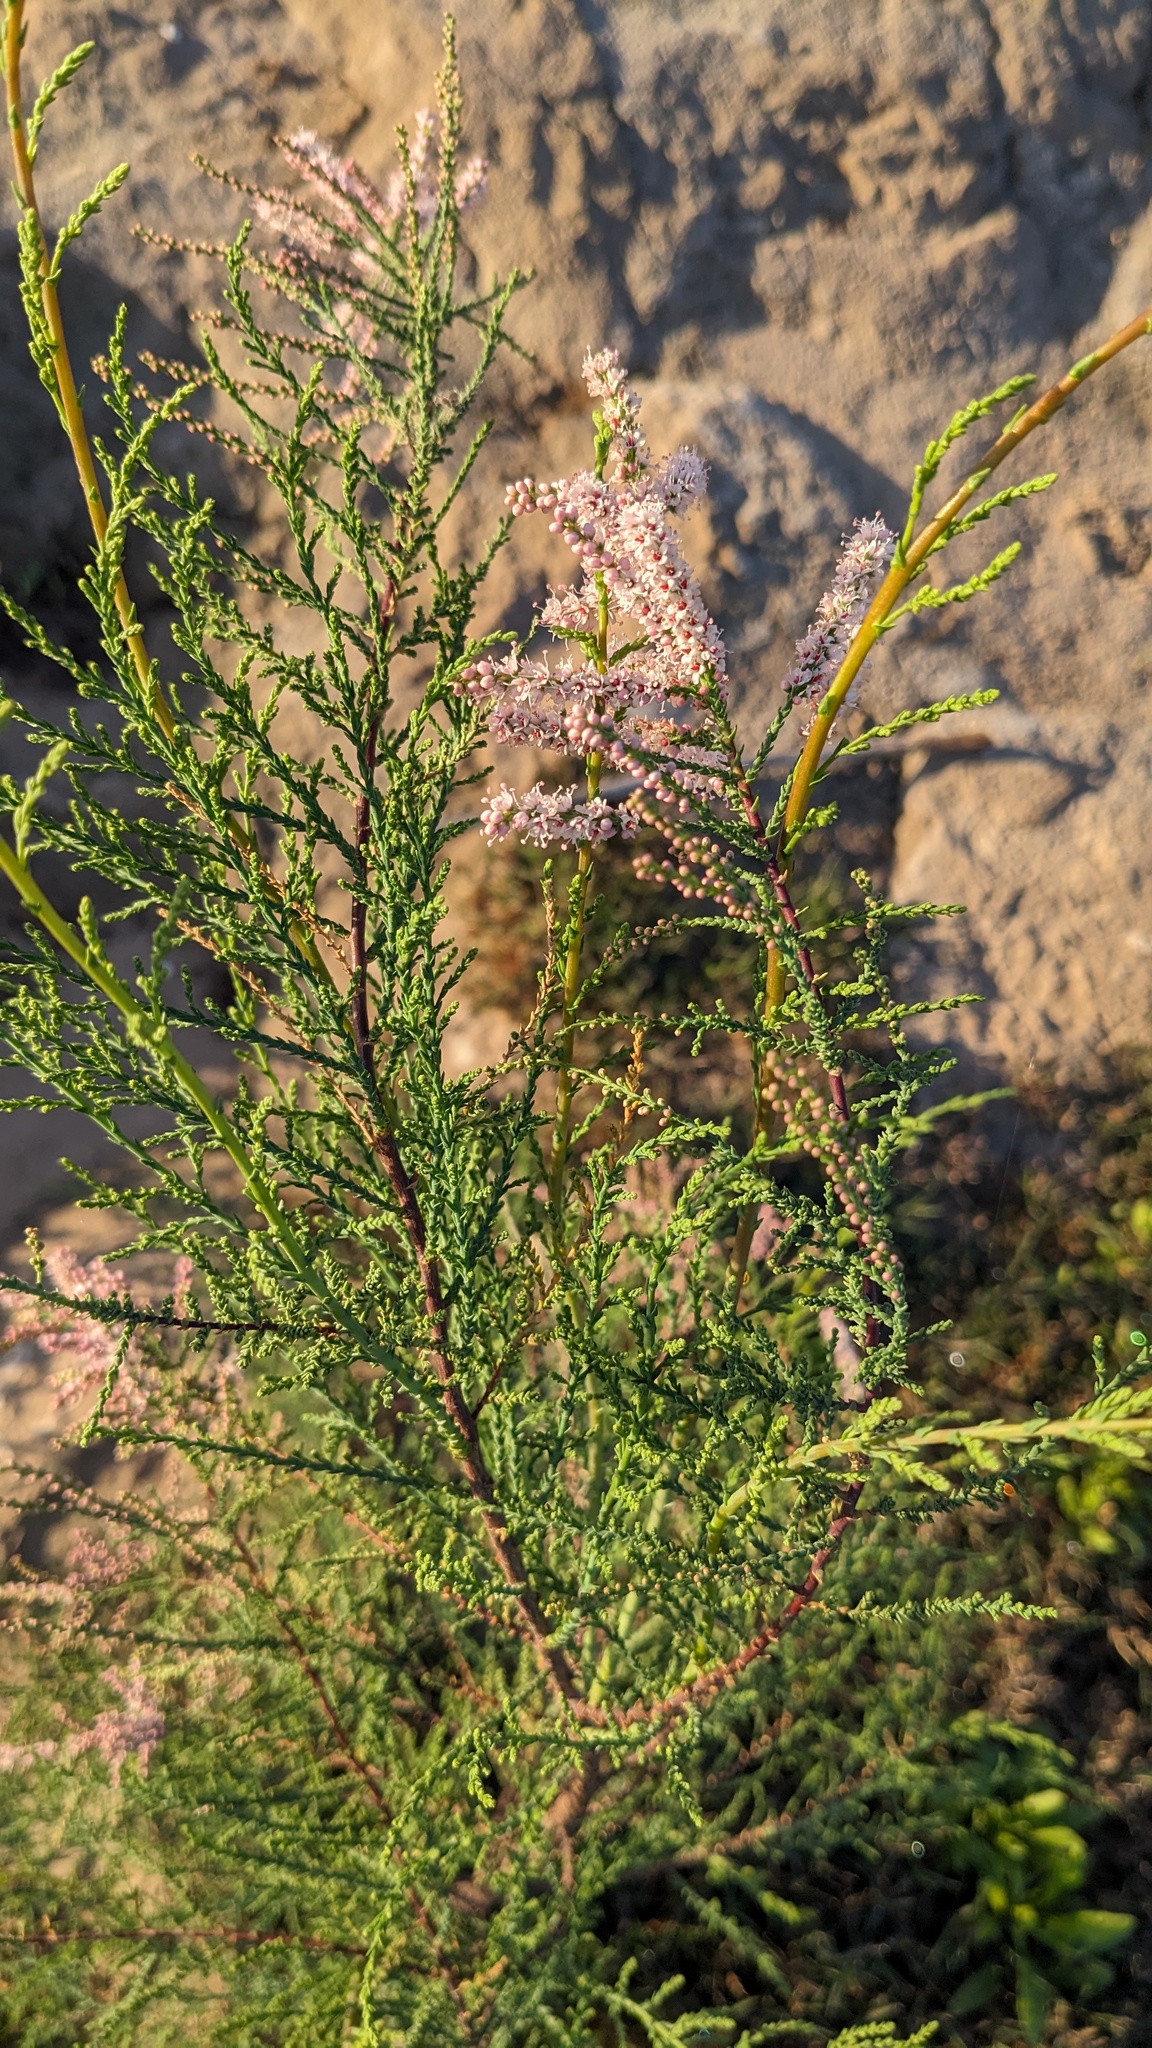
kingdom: Plantae
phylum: Tracheophyta
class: Magnoliopsida
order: Caryophyllales
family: Tamaricaceae
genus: Tamarix
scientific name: Tamarix
